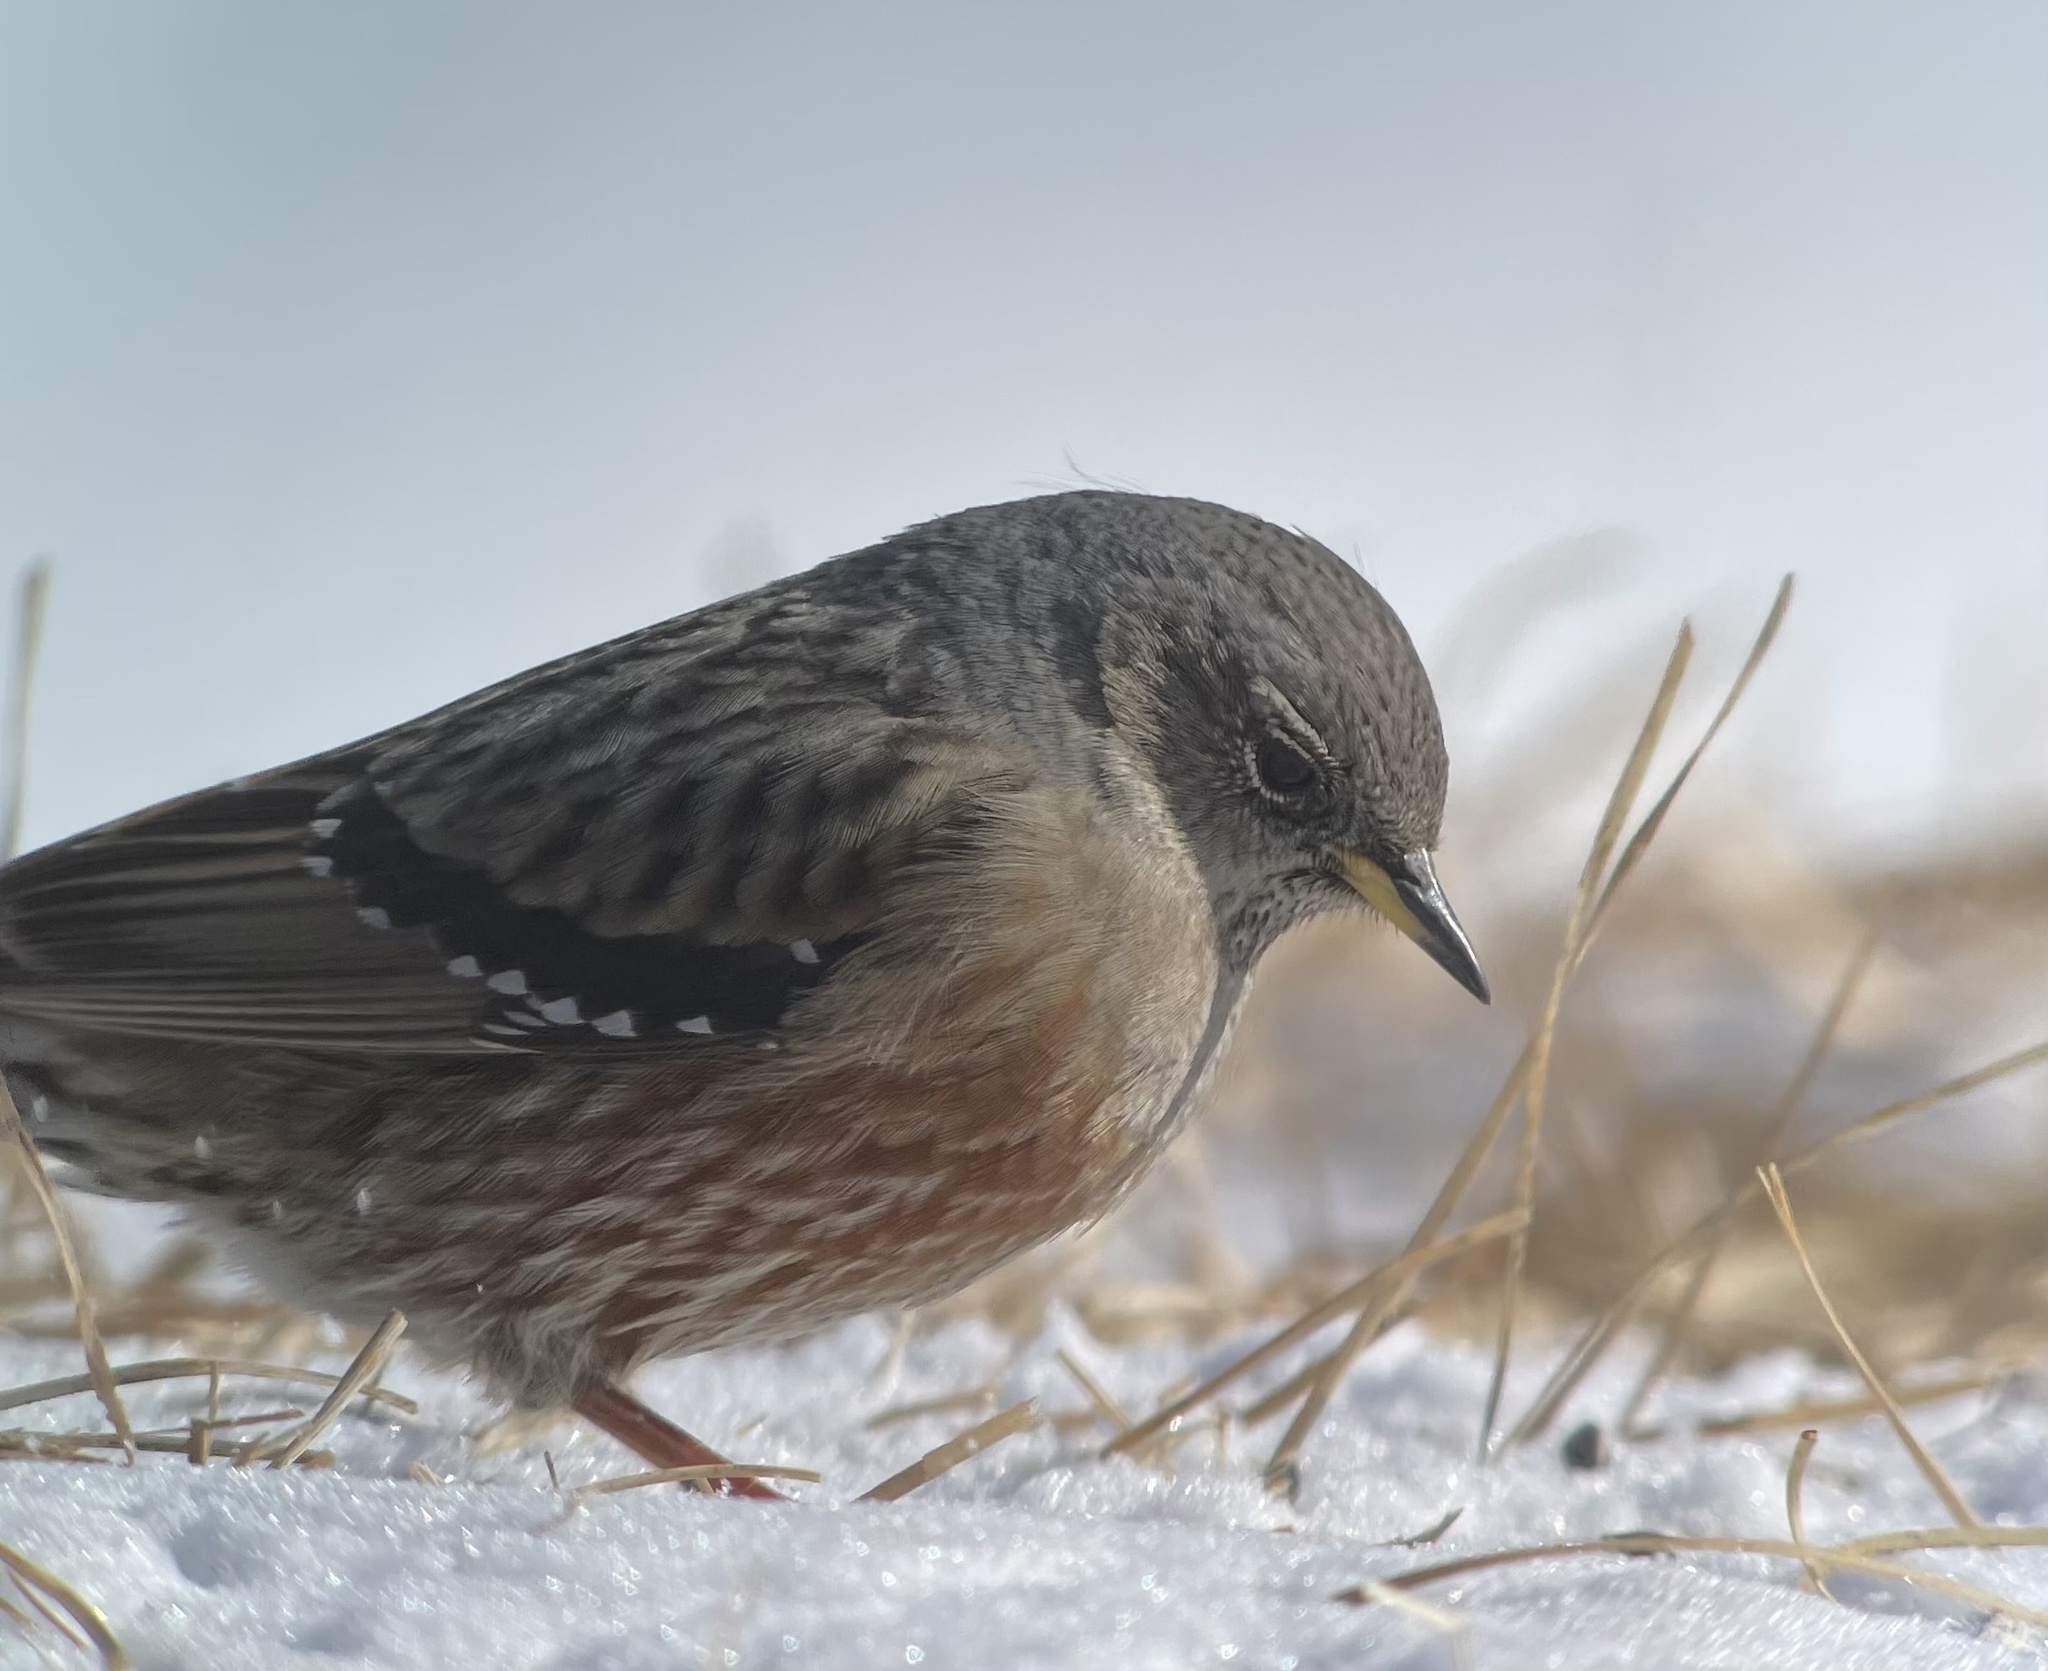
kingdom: Animalia
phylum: Chordata
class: Aves
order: Passeriformes
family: Prunellidae
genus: Prunella
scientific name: Prunella collaris
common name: Alpine accentor
